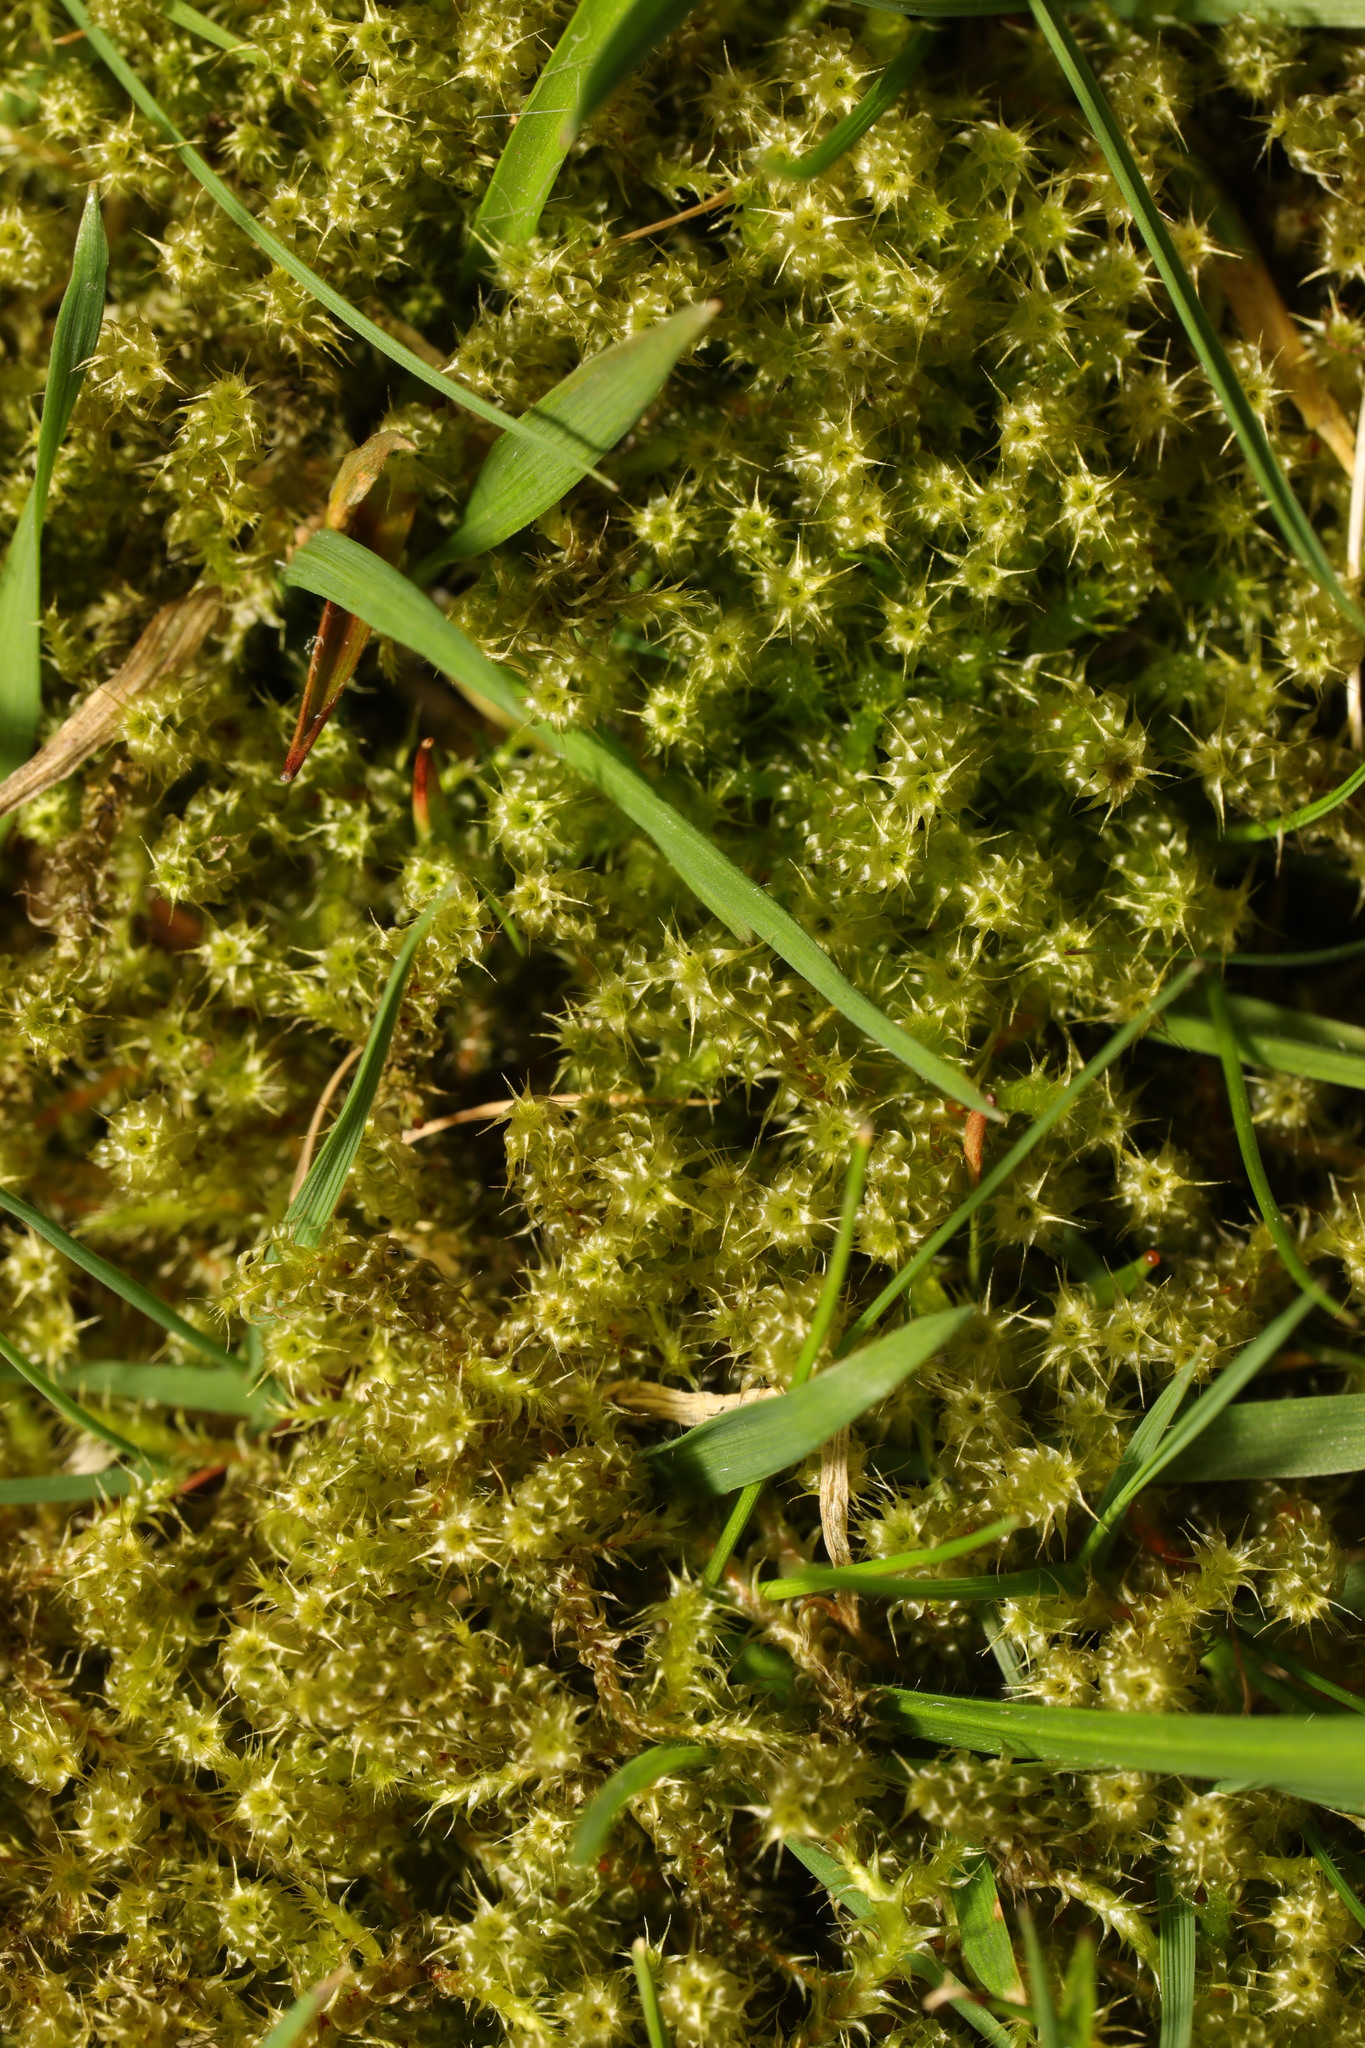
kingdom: Plantae
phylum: Bryophyta
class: Bryopsida
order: Hypnales
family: Hylocomiaceae
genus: Rhytidiadelphus
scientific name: Rhytidiadelphus squarrosus
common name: Springy turf-moss
